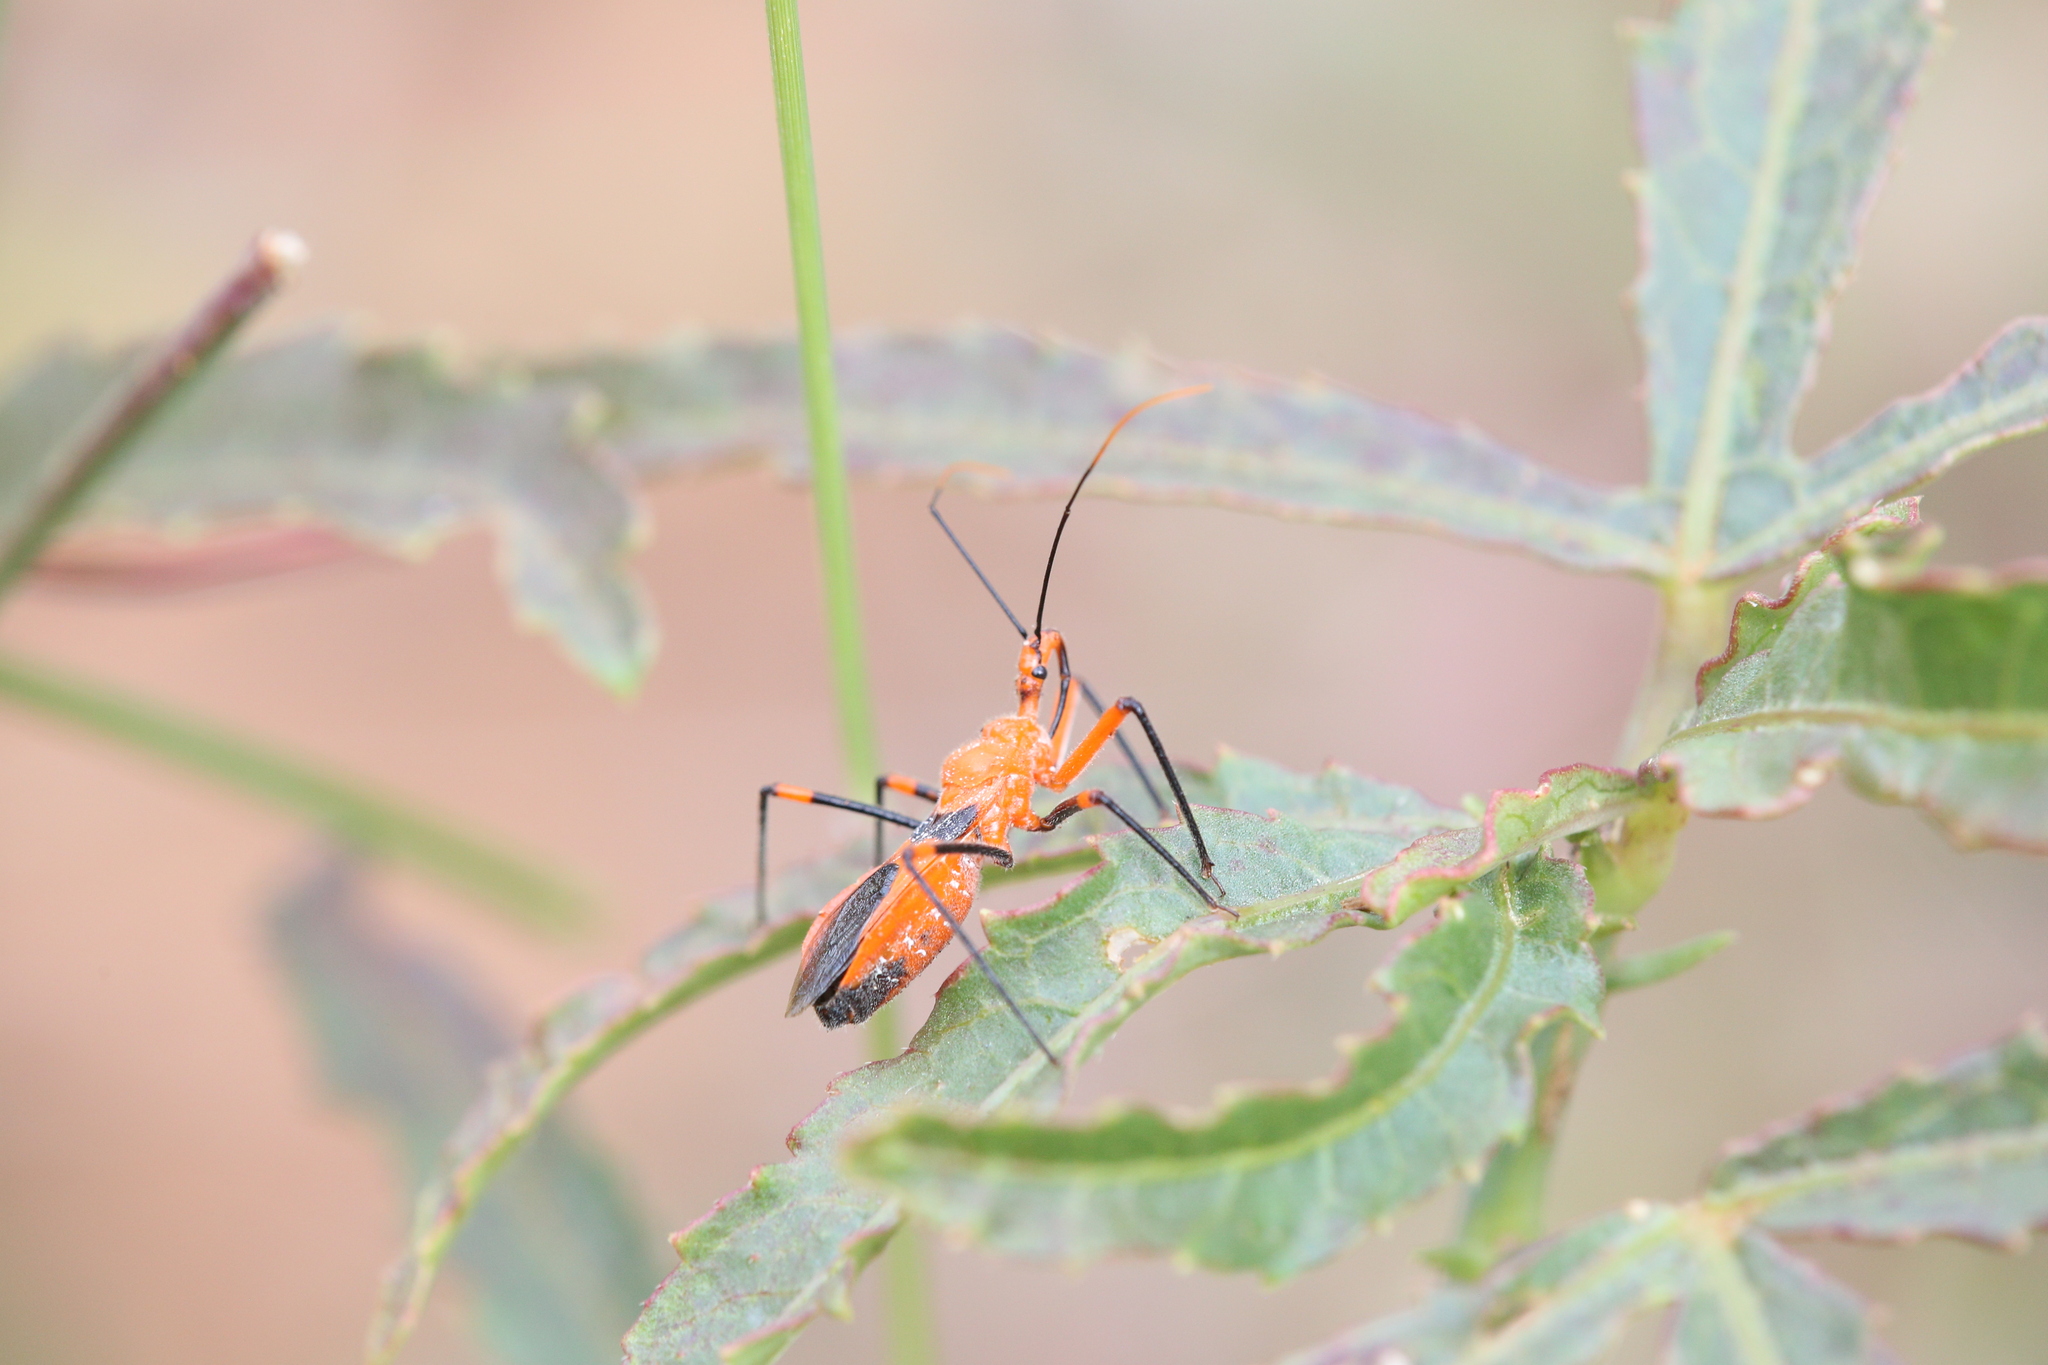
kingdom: Animalia
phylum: Arthropoda
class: Insecta
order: Hemiptera
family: Reduviidae
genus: Poecilobdallus
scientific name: Poecilobdallus formosus
